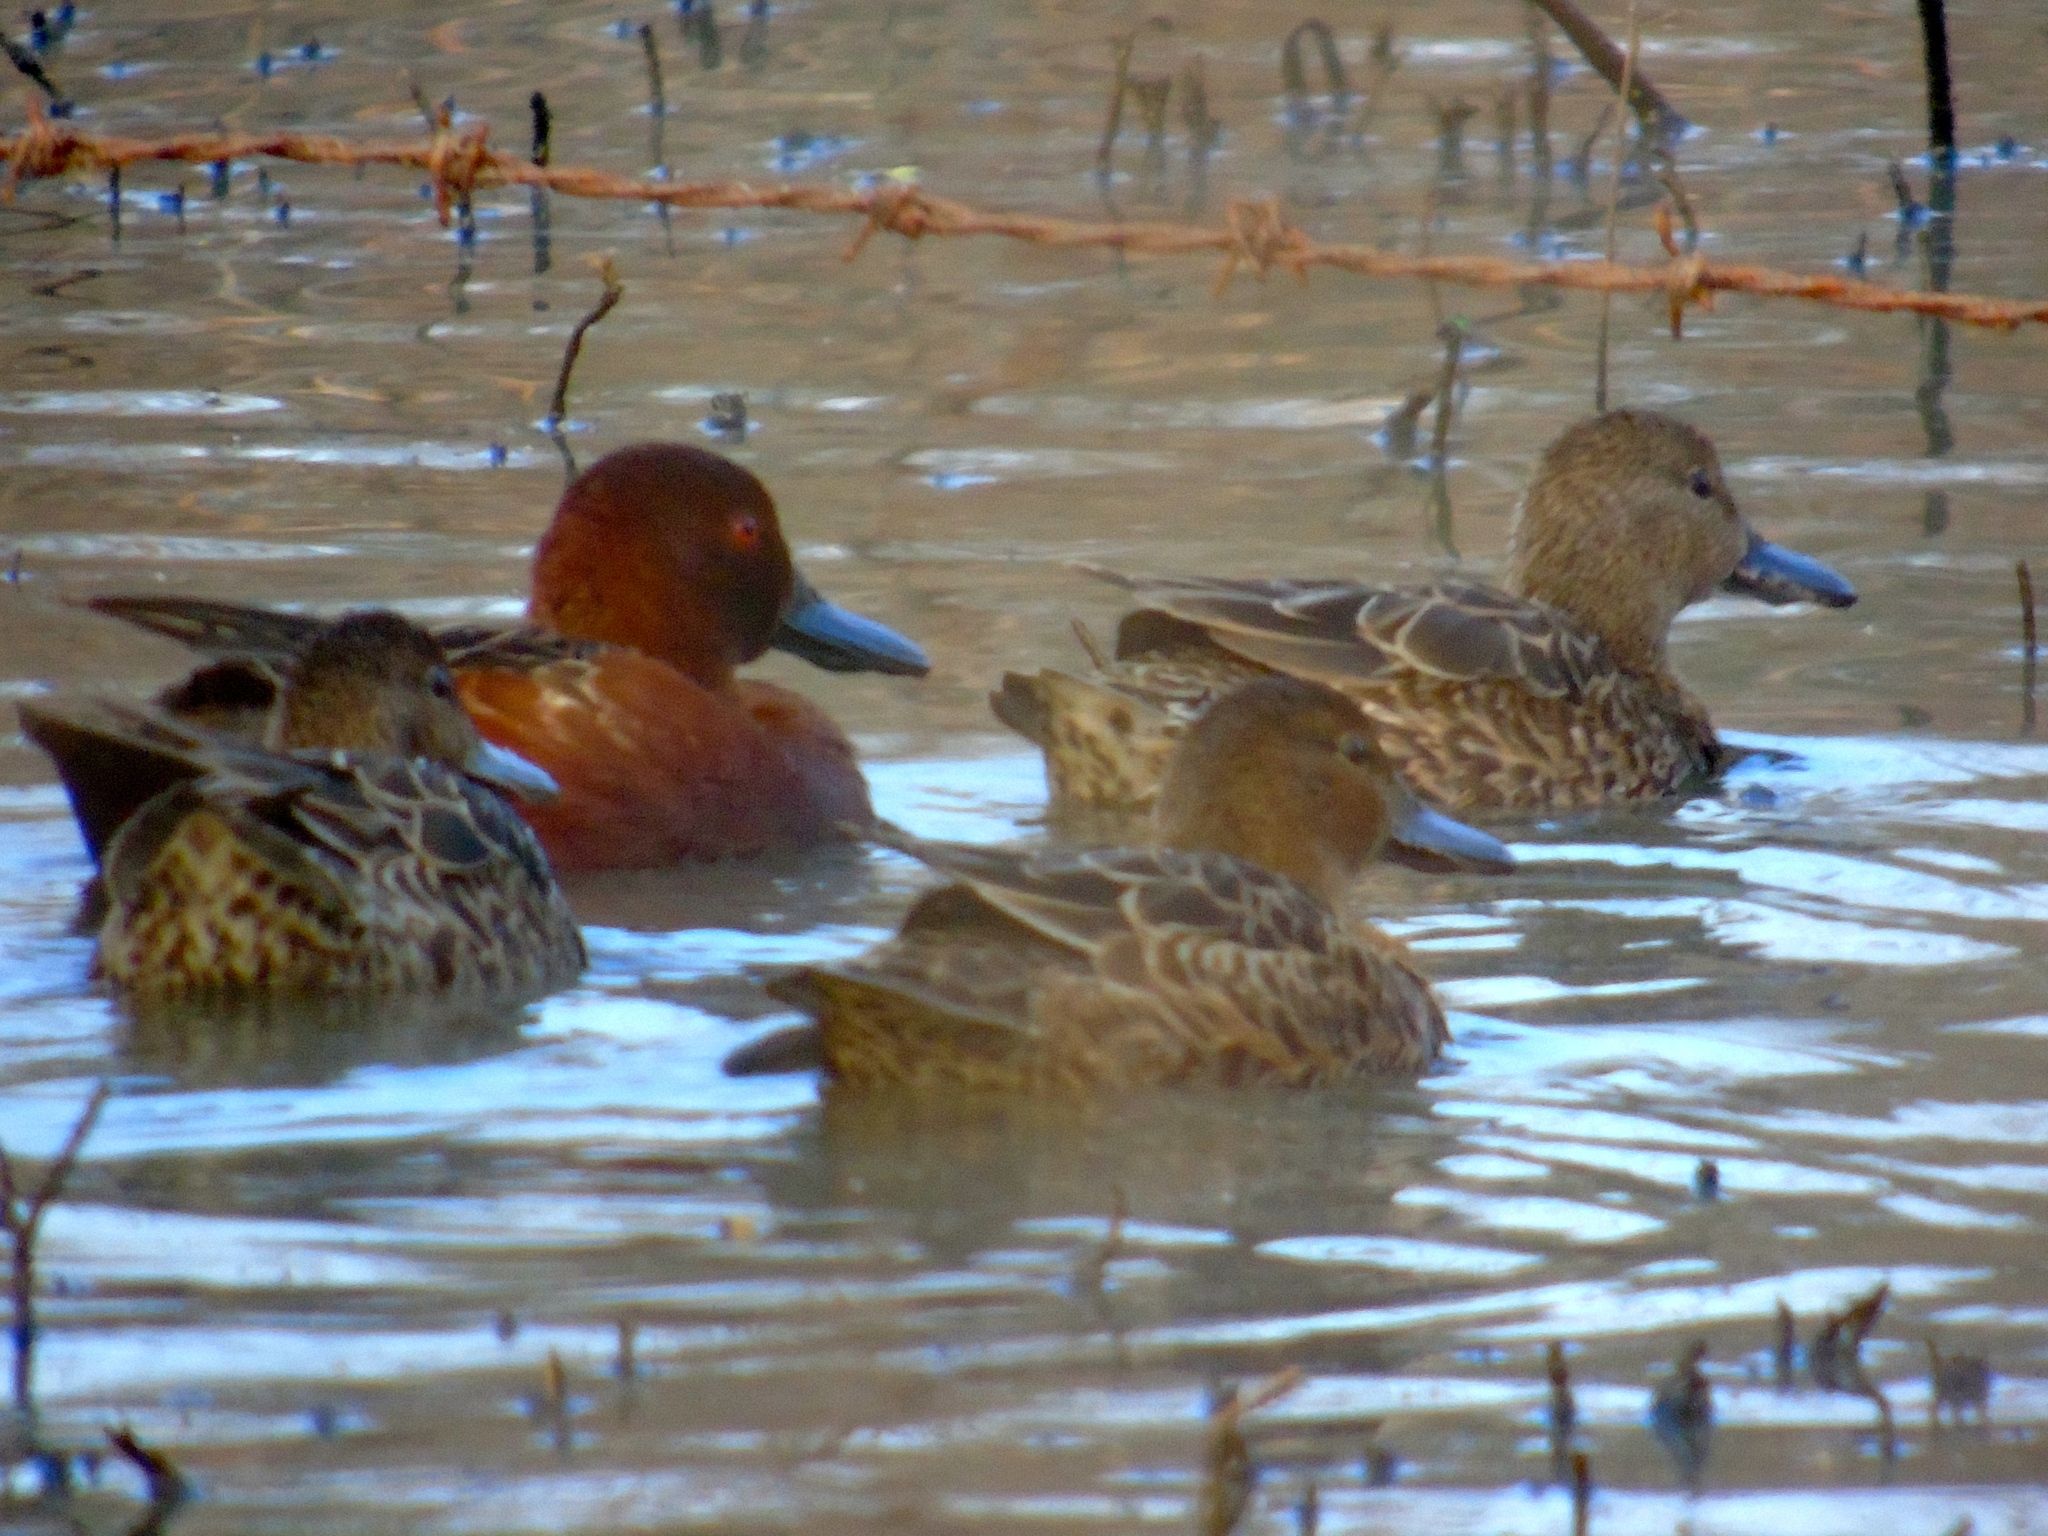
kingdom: Animalia
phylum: Chordata
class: Aves
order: Anseriformes
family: Anatidae
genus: Spatula
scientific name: Spatula cyanoptera
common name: Cinnamon teal
